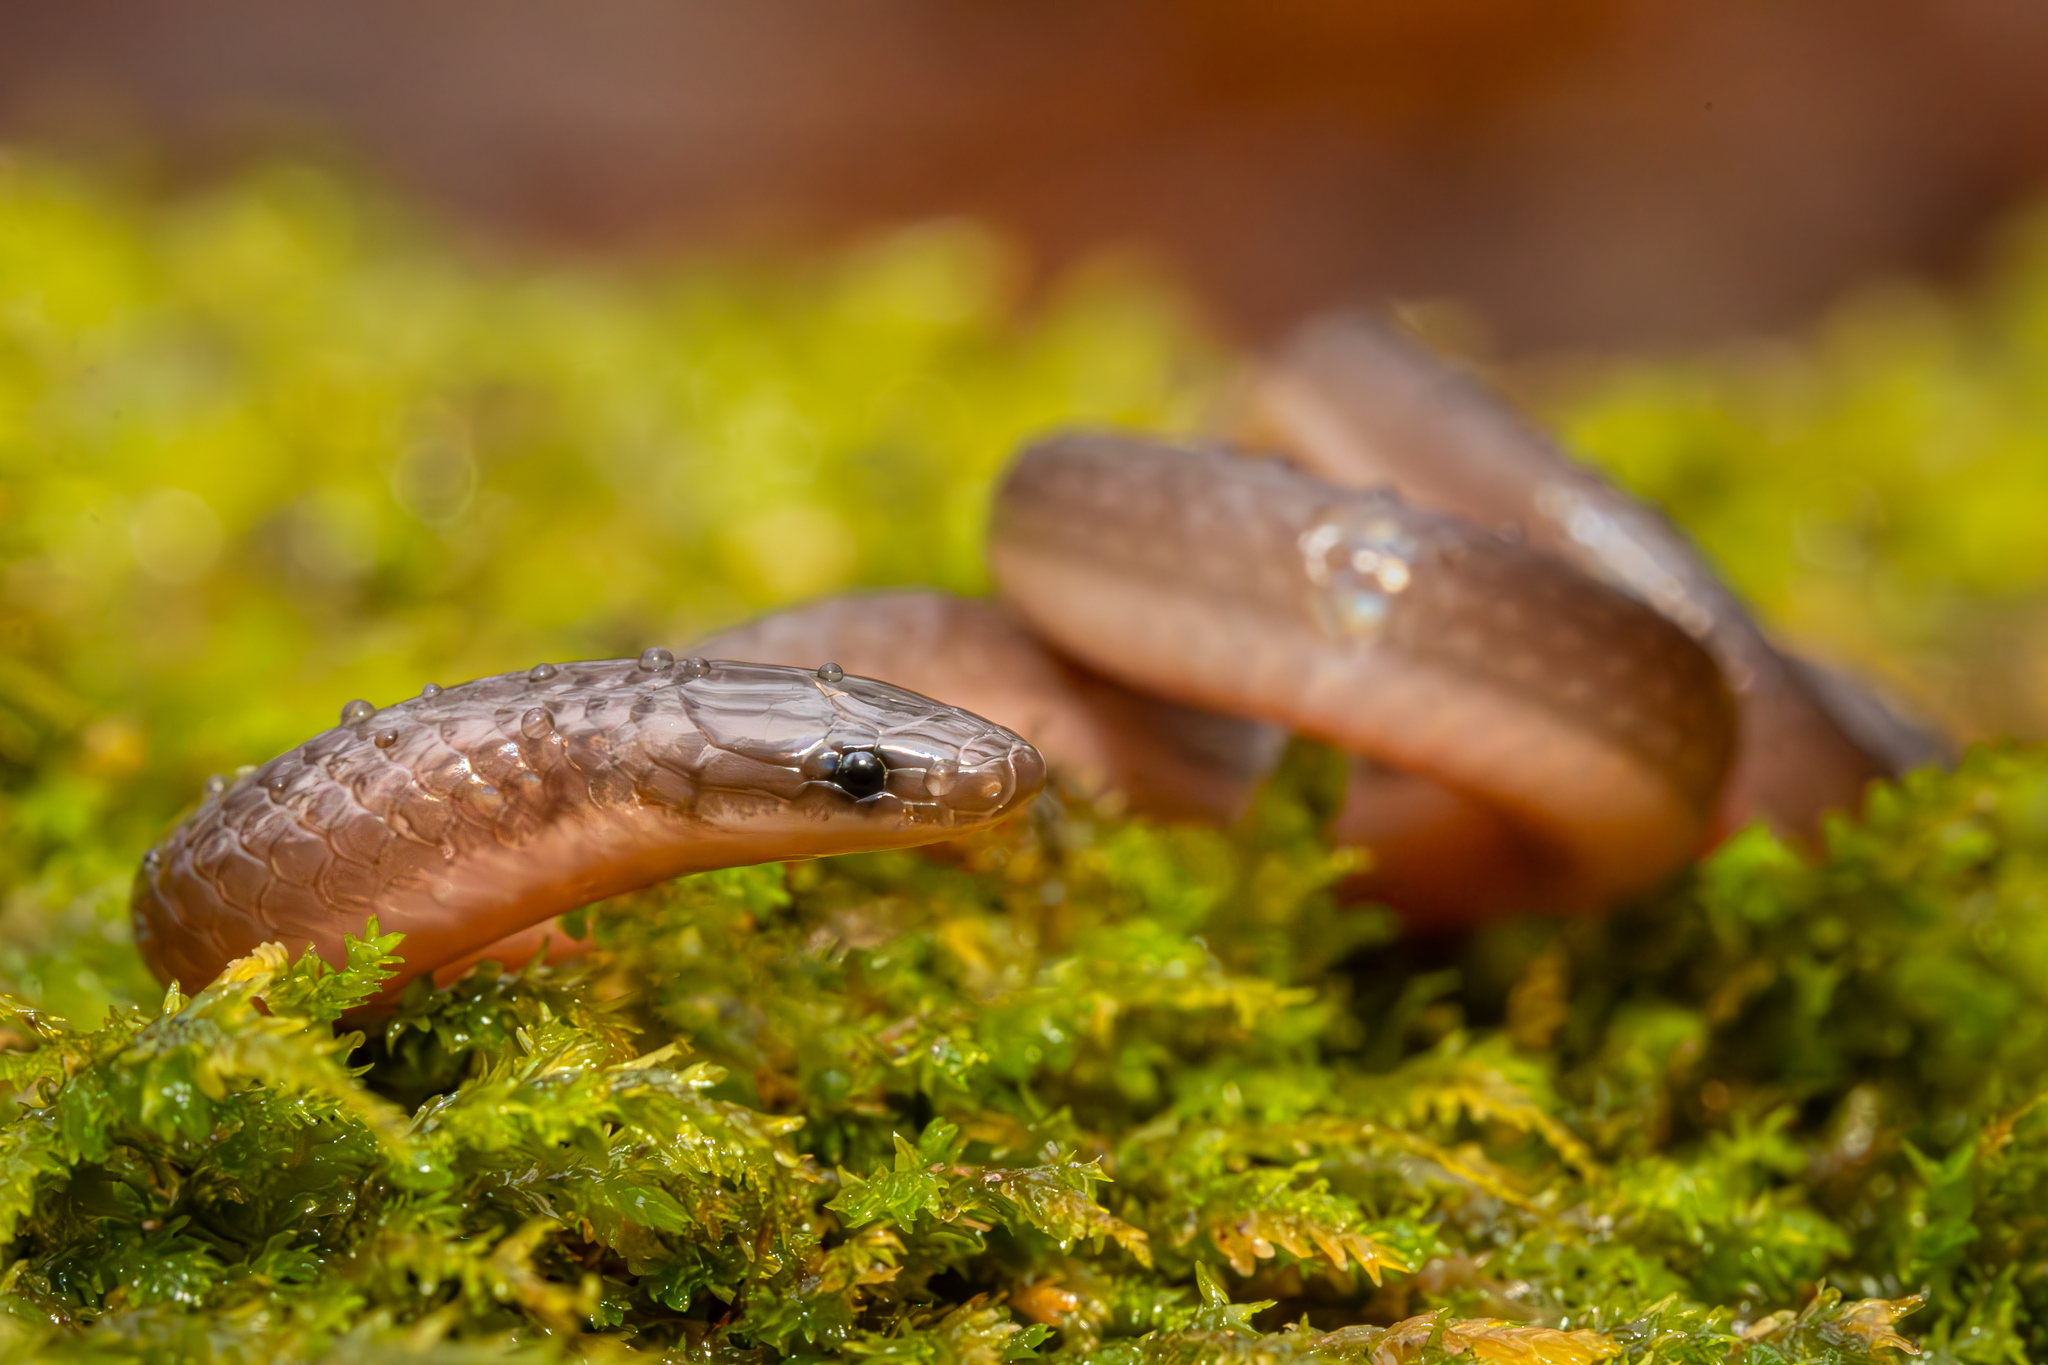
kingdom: Animalia
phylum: Chordata
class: Squamata
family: Colubridae
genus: Carphophis
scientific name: Carphophis amoenus
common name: Eastern worm snake
